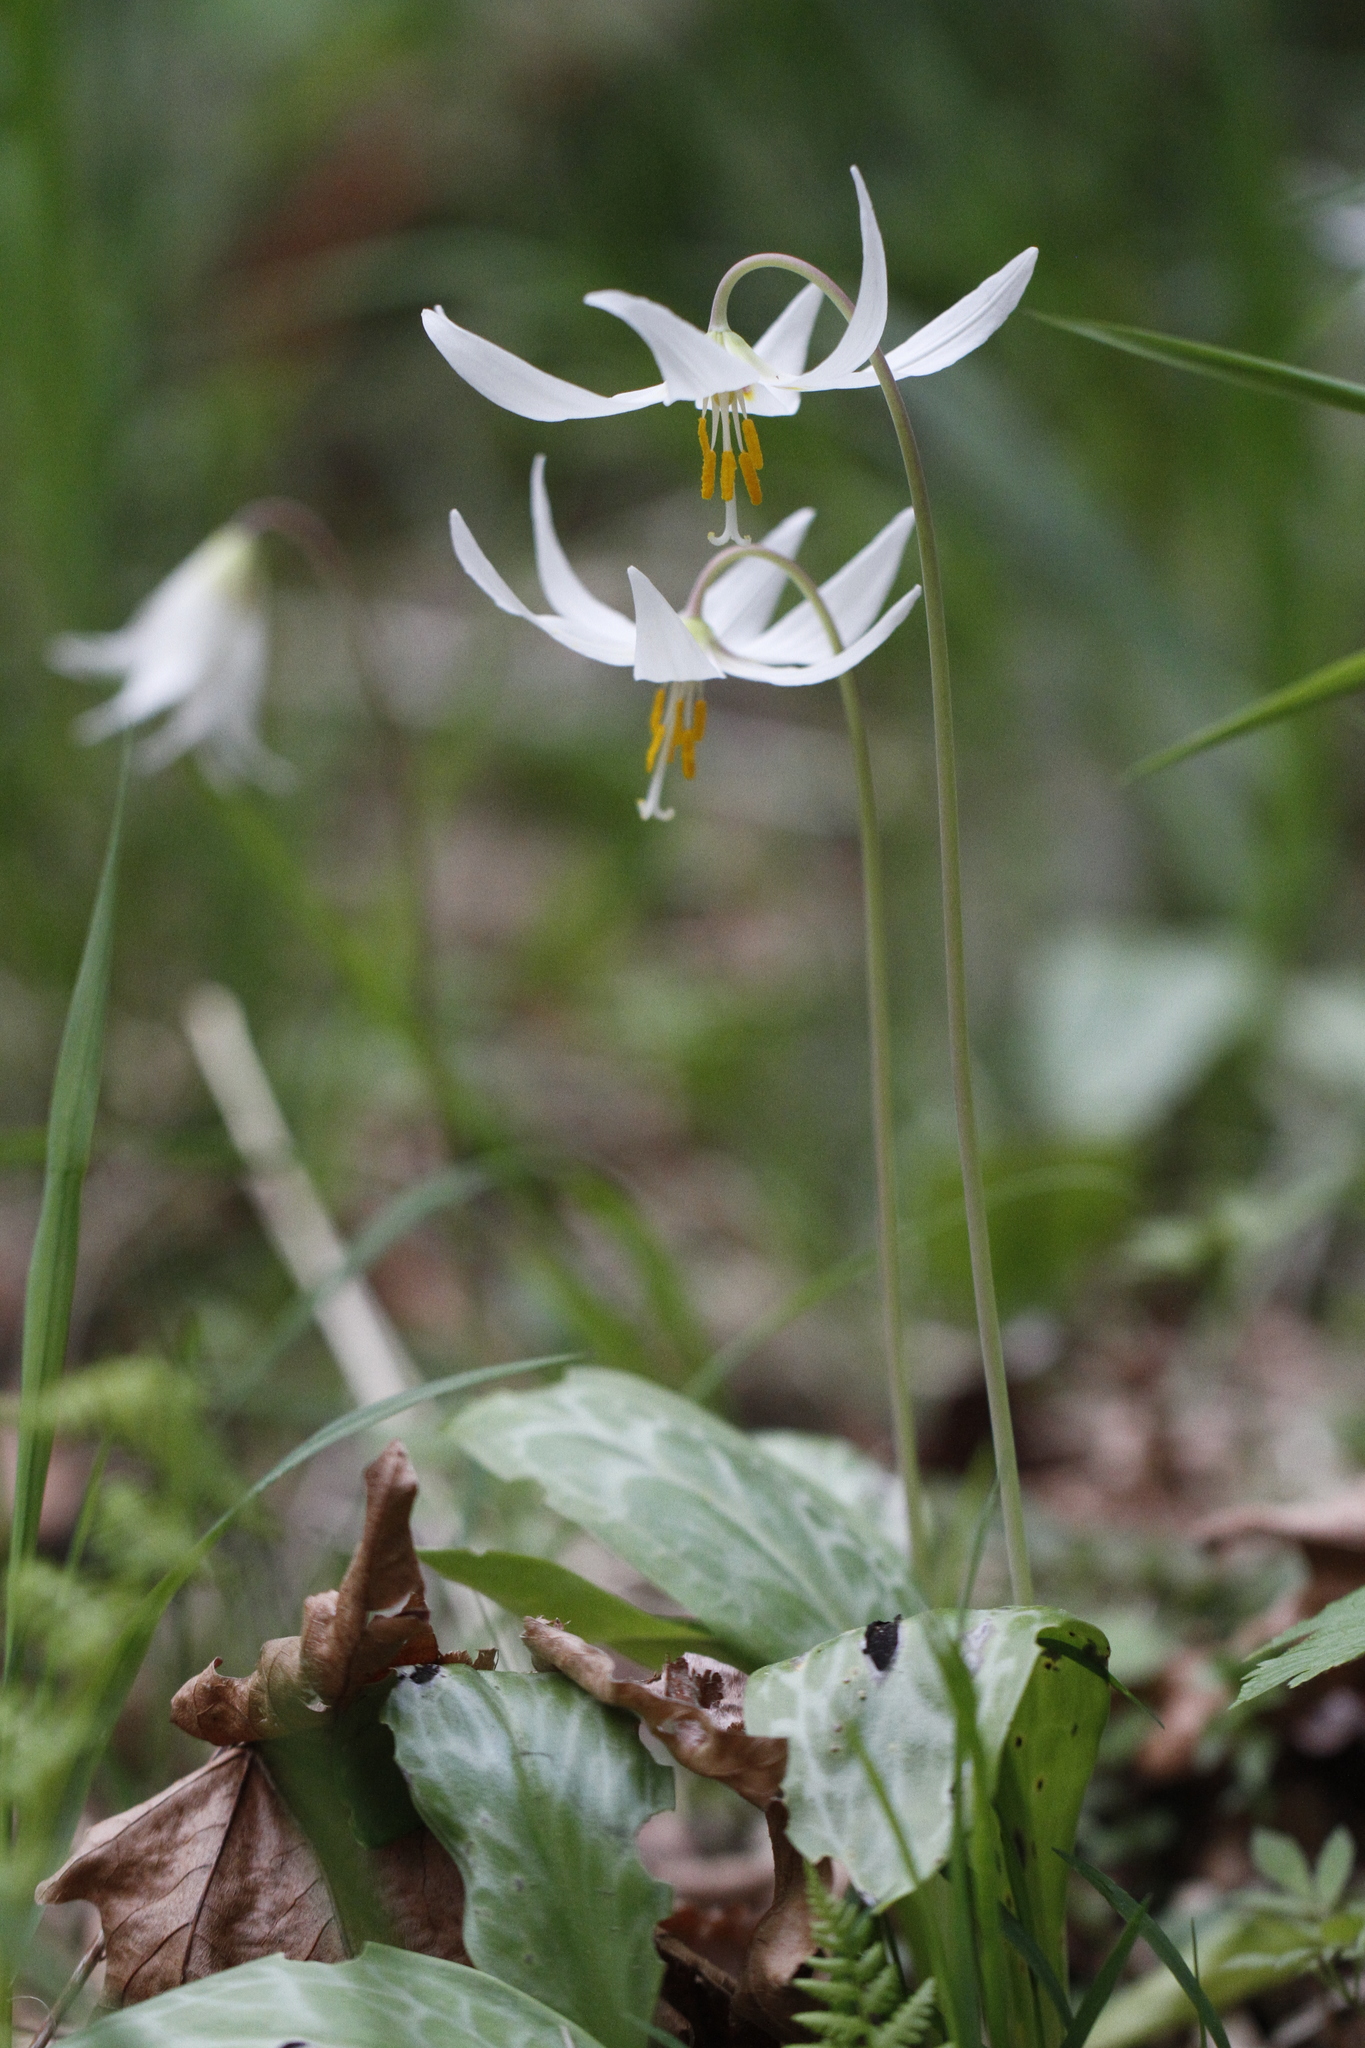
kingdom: Plantae
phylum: Tracheophyta
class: Liliopsida
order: Liliales
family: Liliaceae
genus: Erythronium
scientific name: Erythronium oregonum
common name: Giant adder's-tongue
